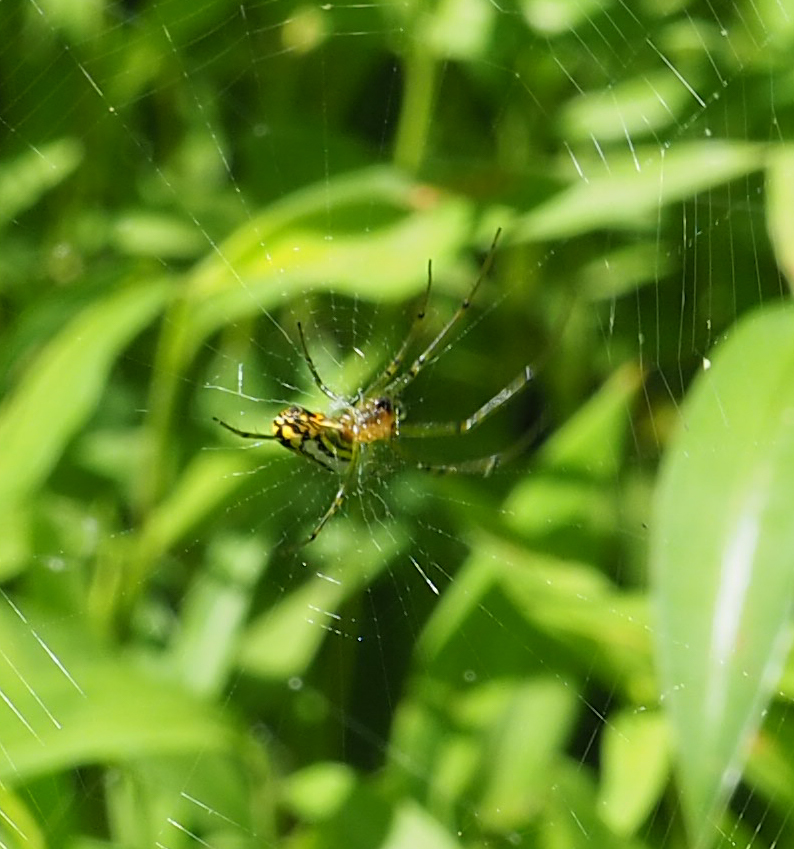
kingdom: Animalia
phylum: Arthropoda
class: Arachnida
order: Araneae
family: Tetragnathidae
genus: Leucauge
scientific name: Leucauge venusta
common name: Longjawed orb weavers
